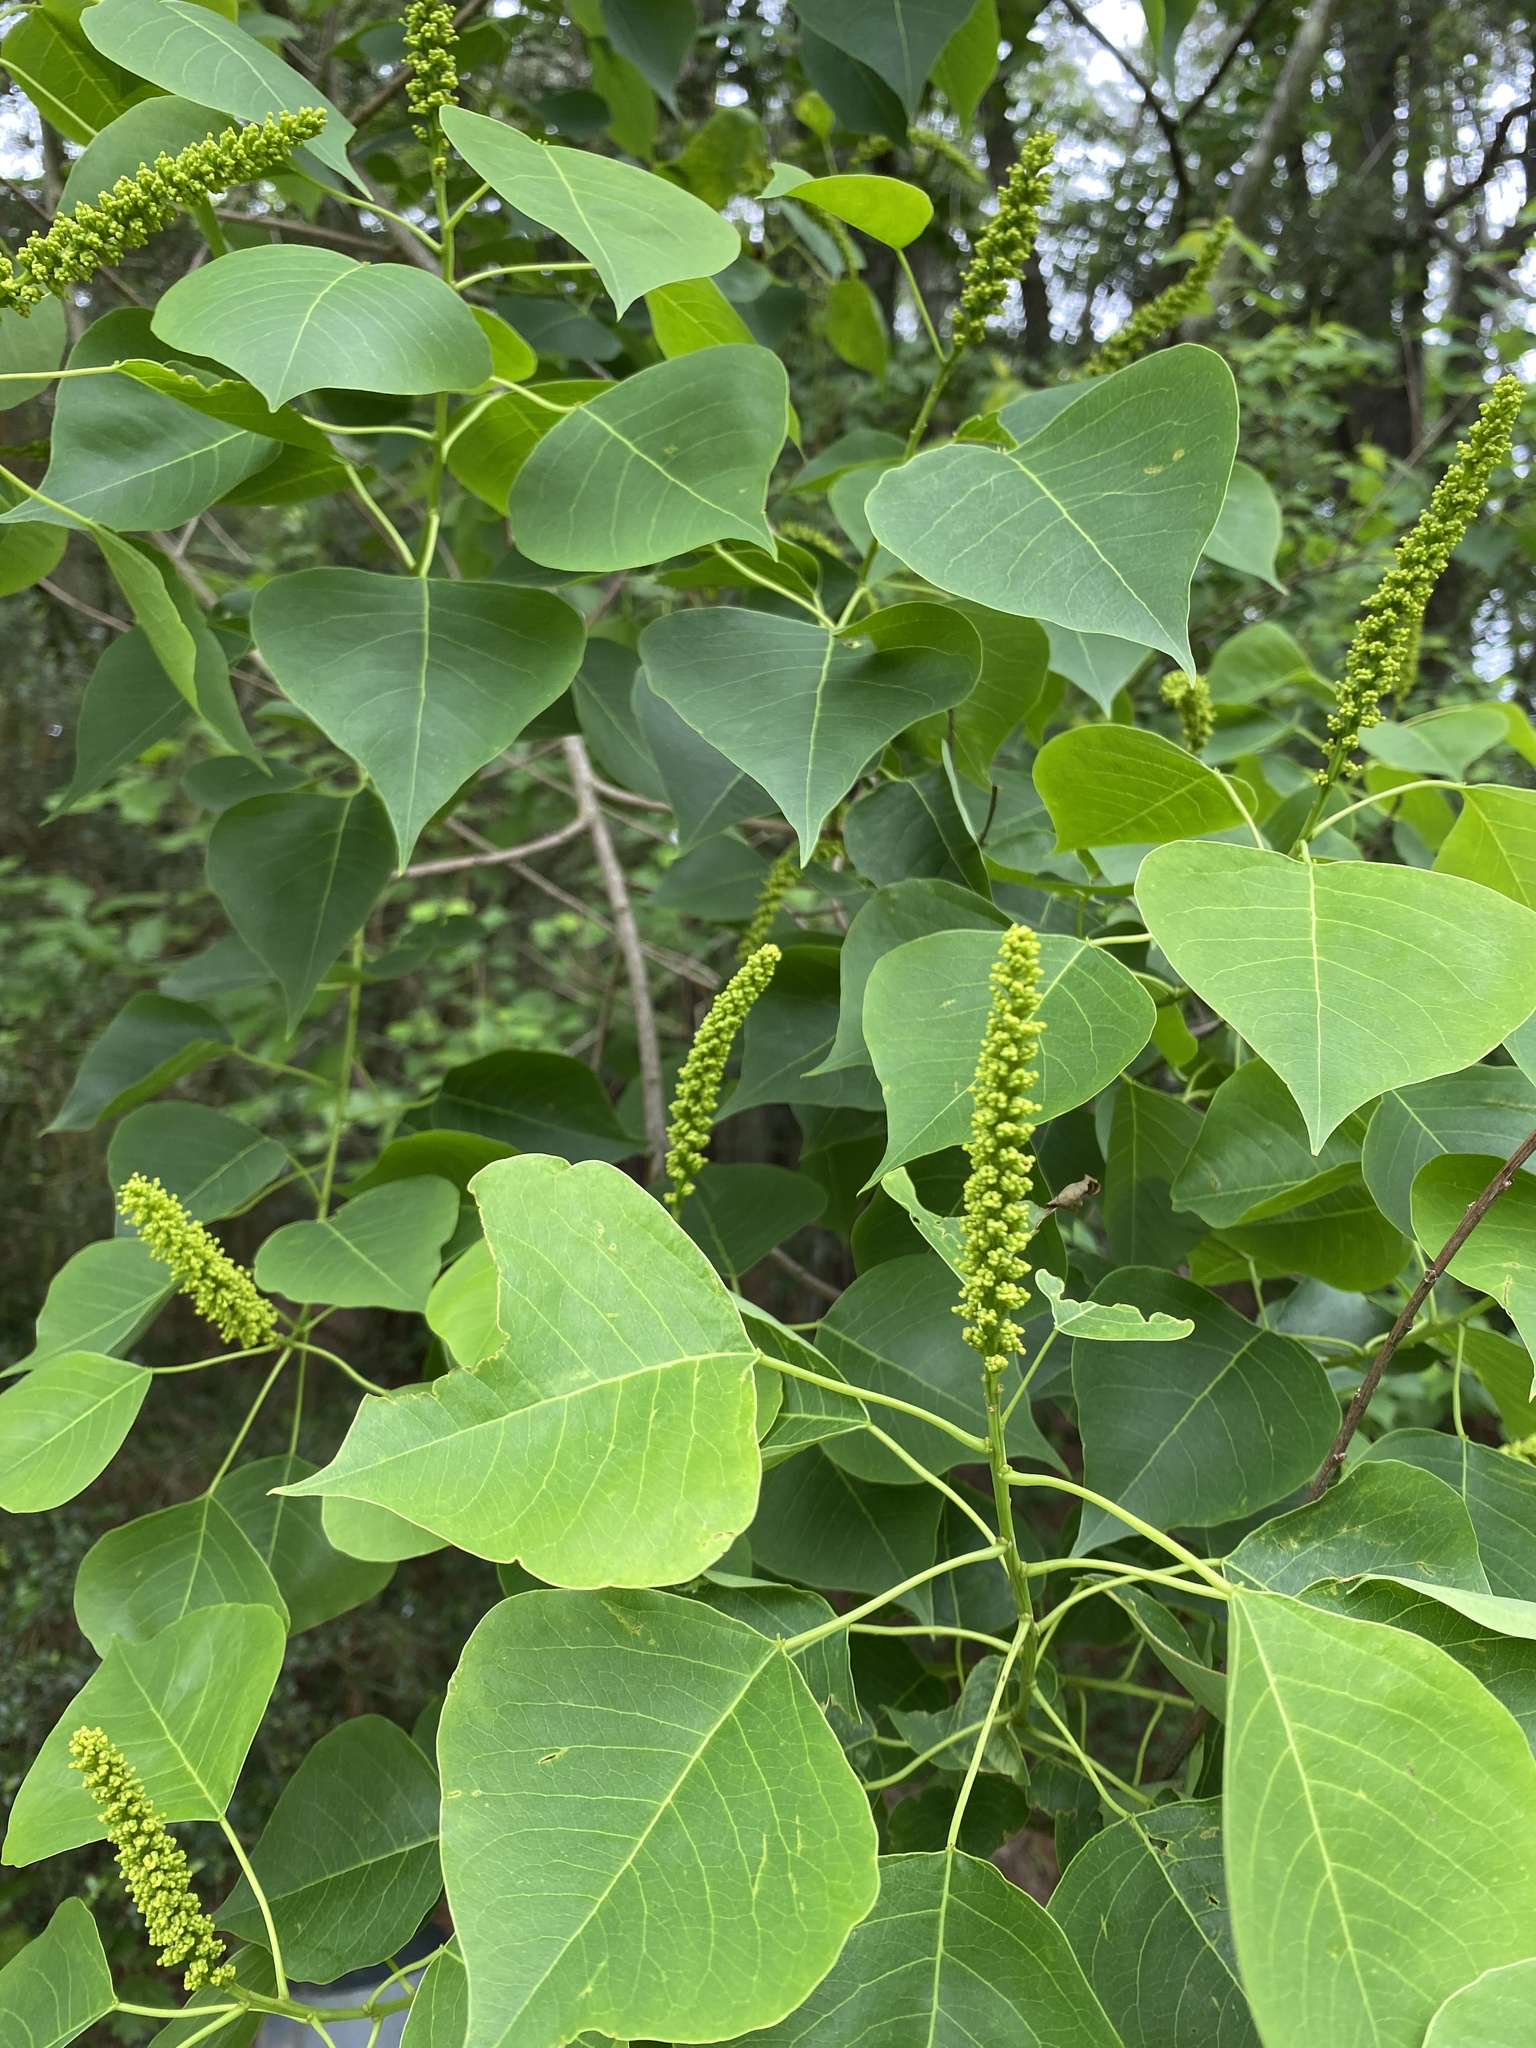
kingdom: Plantae
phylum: Tracheophyta
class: Magnoliopsida
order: Malpighiales
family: Euphorbiaceae
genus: Triadica
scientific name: Triadica sebifera
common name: Chinese tallow
